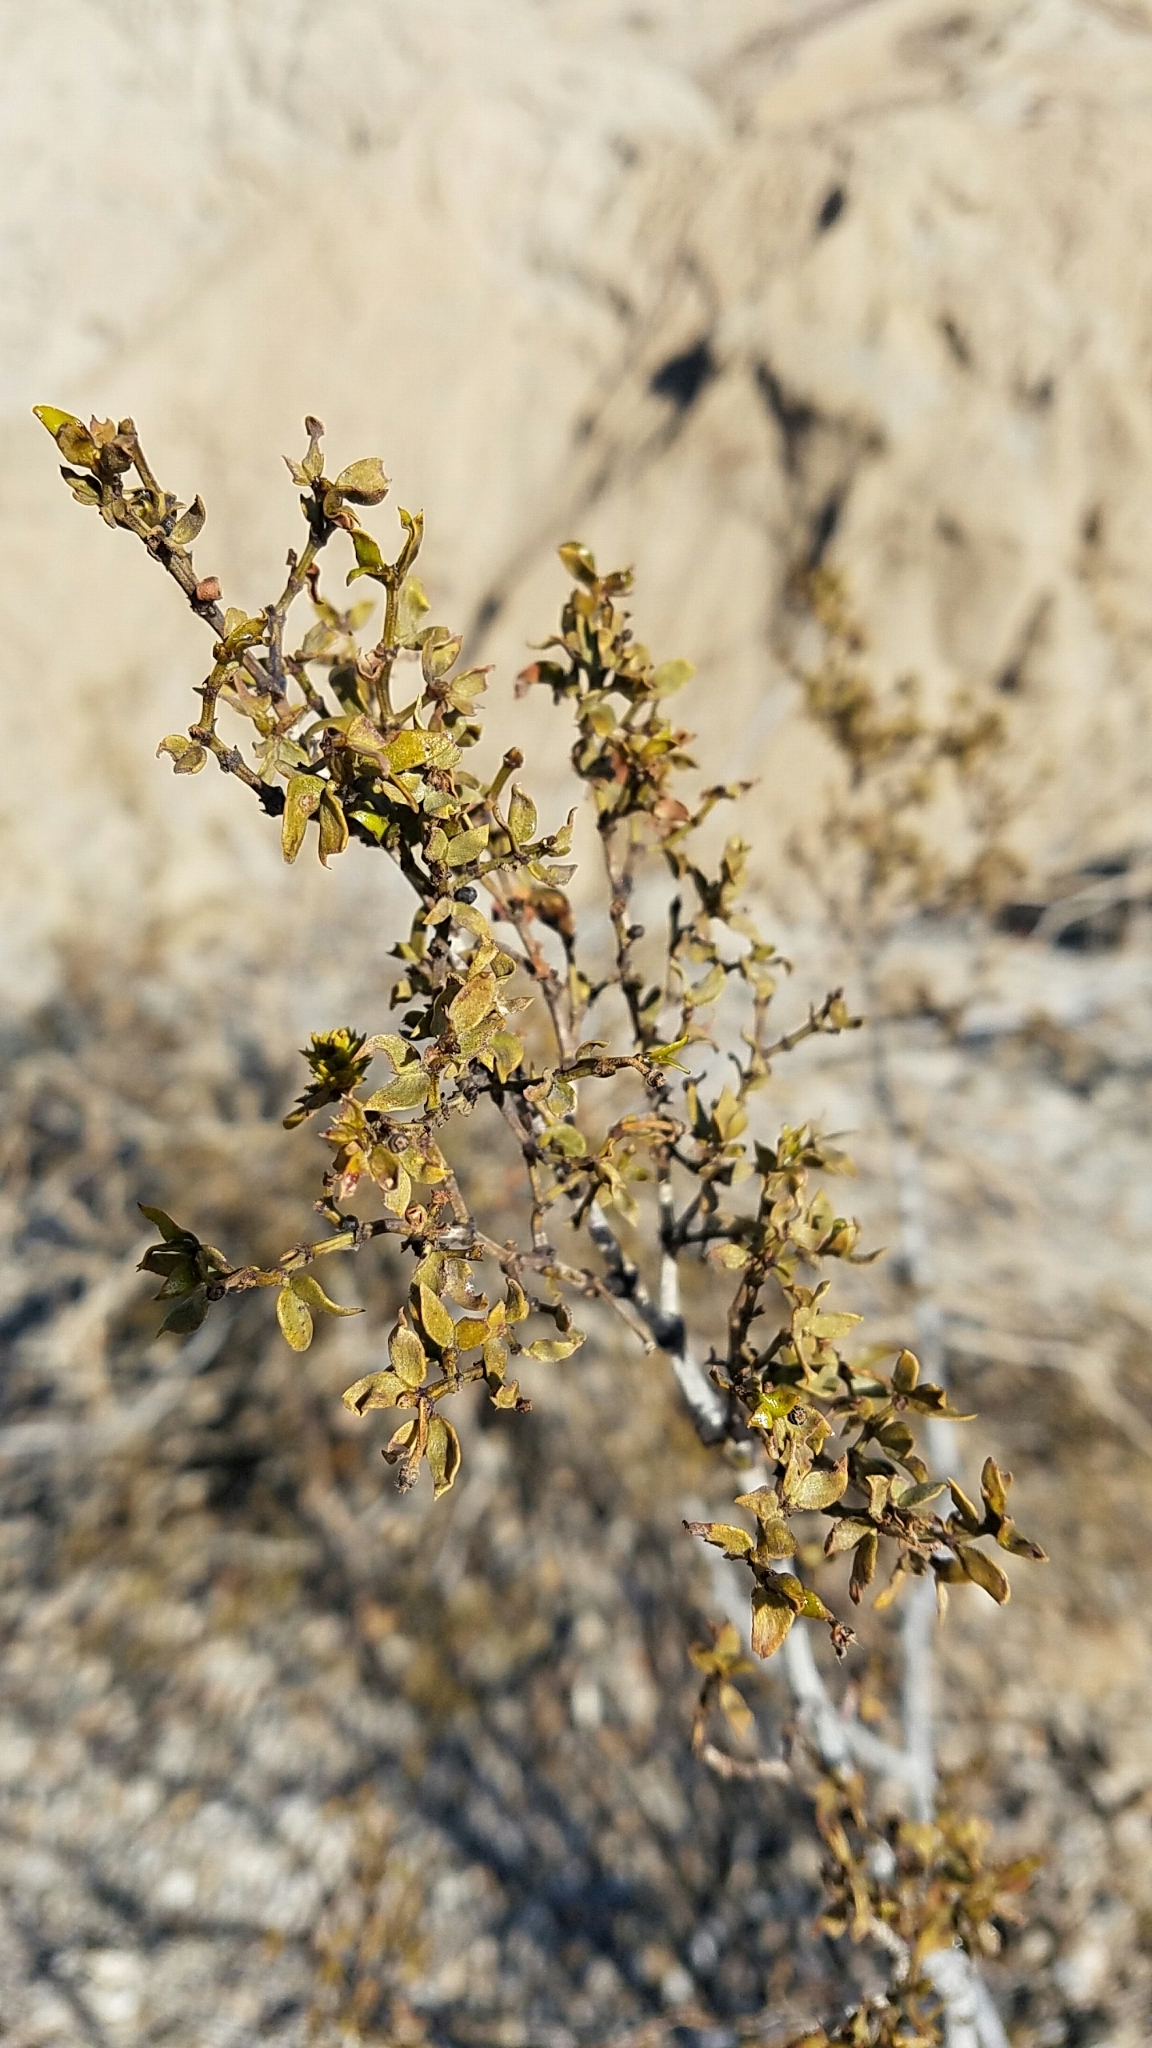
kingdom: Plantae
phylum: Tracheophyta
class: Magnoliopsida
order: Zygophyllales
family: Zygophyllaceae
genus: Larrea
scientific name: Larrea tridentata
